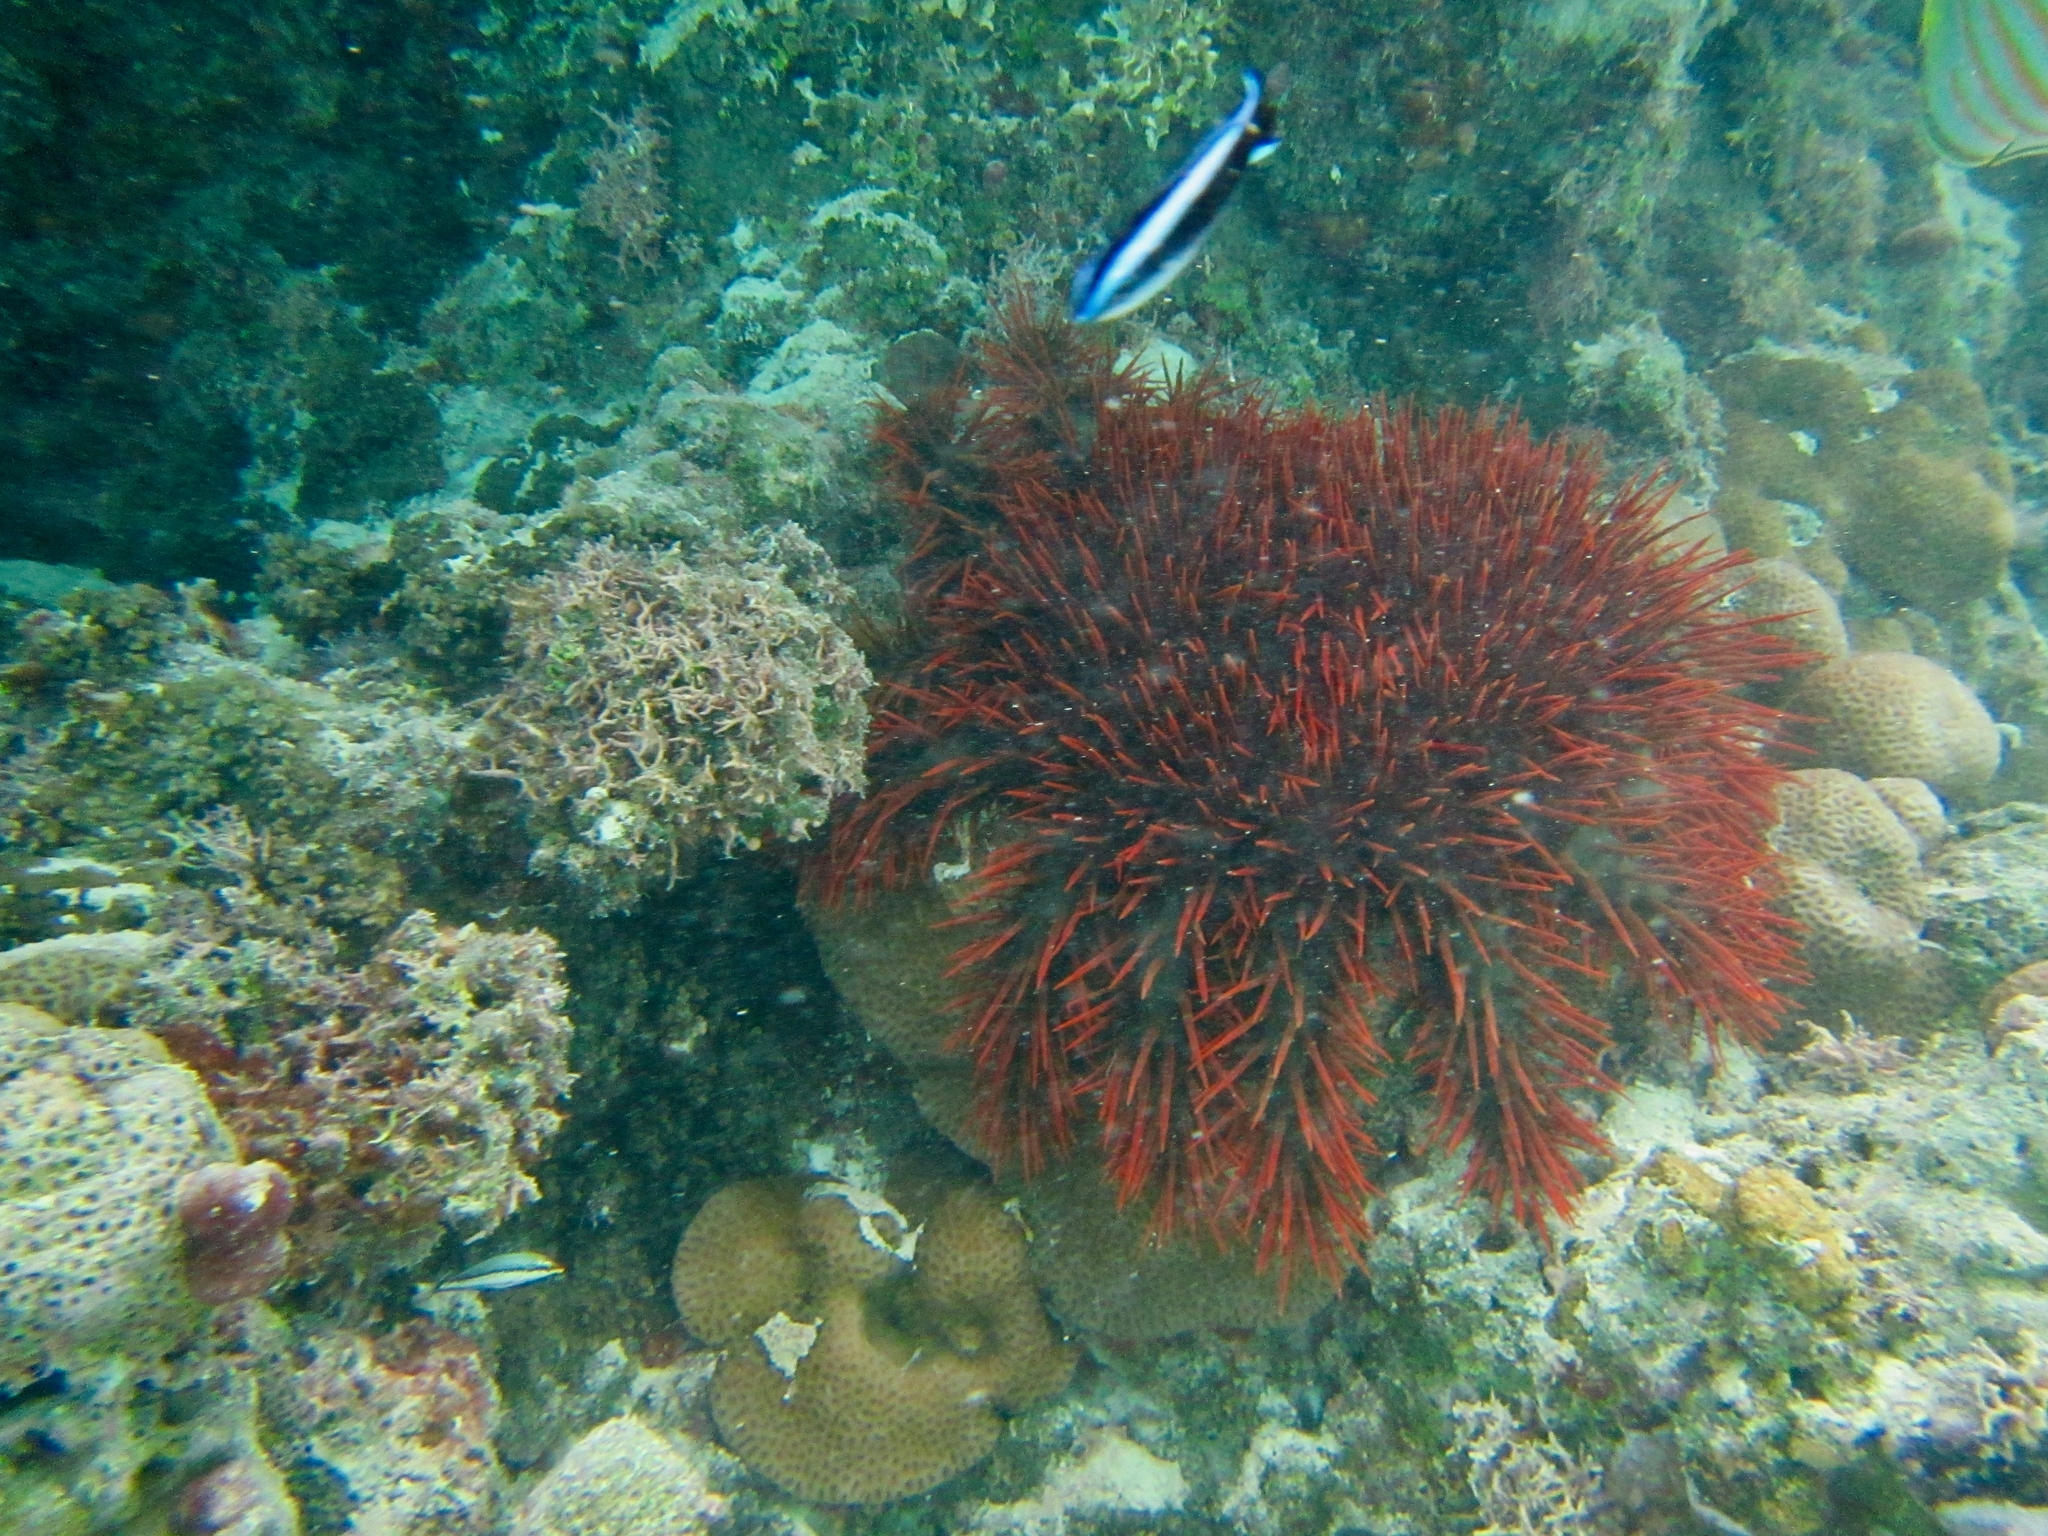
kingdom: Animalia
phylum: Echinodermata
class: Asteroidea
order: Valvatida
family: Acanthasteridae
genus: Acanthaster
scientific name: Acanthaster planci
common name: Crown-of-thorns
